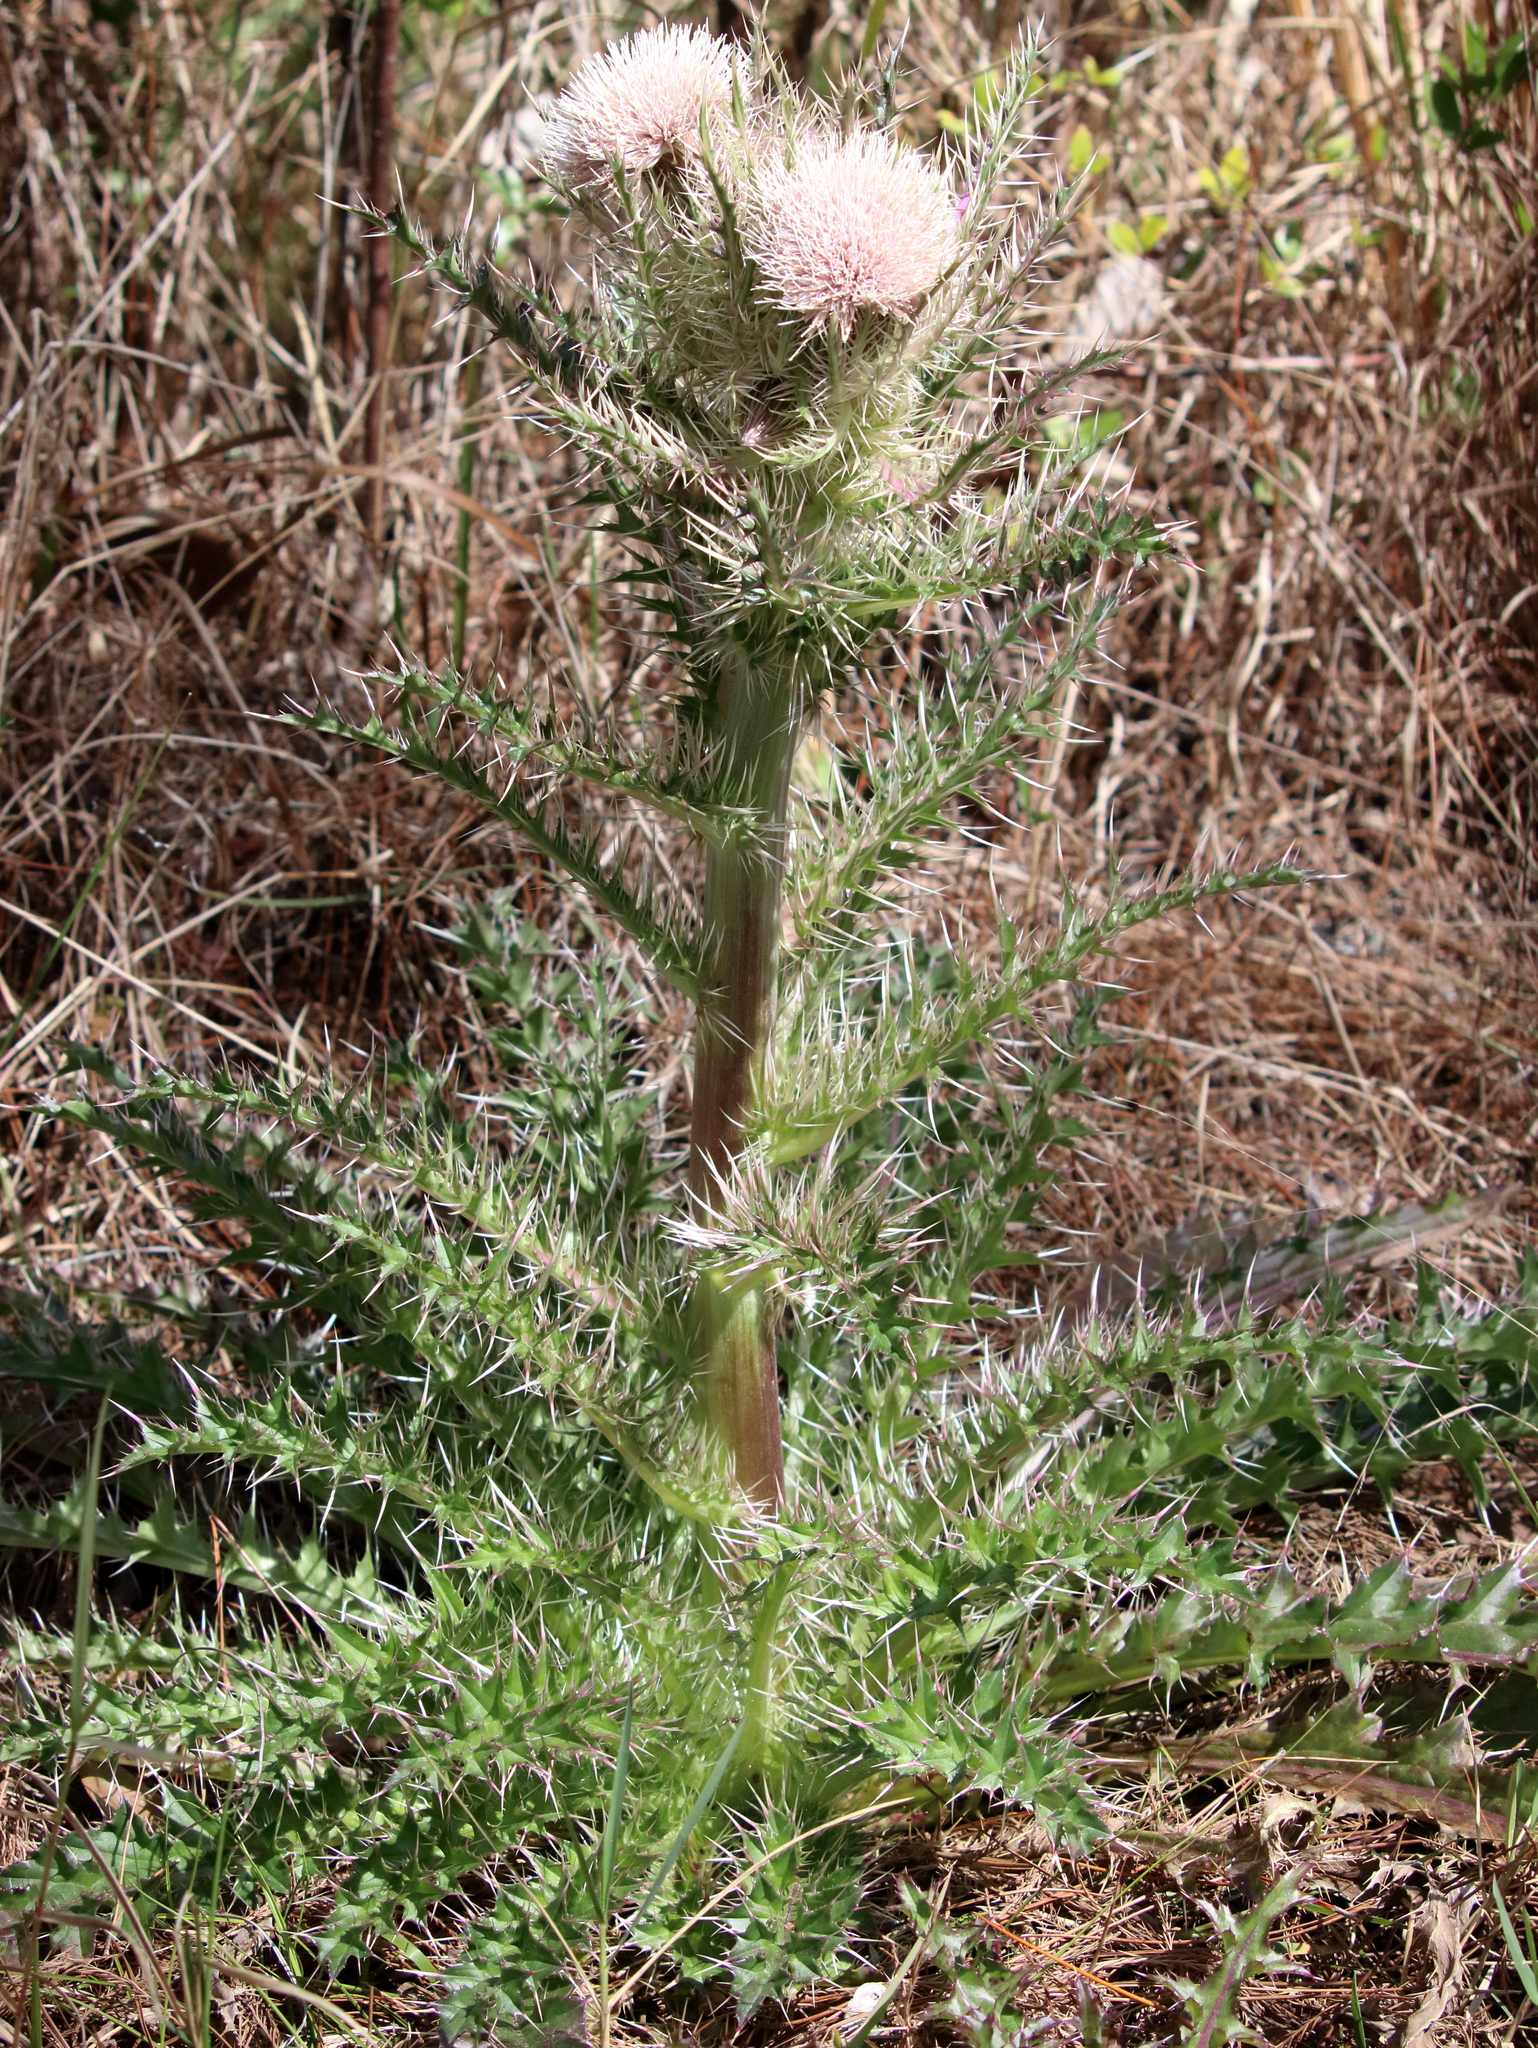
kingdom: Plantae
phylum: Tracheophyta
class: Magnoliopsida
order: Asterales
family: Asteraceae
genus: Cirsium
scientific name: Cirsium horridulum
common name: Bristly thistle
